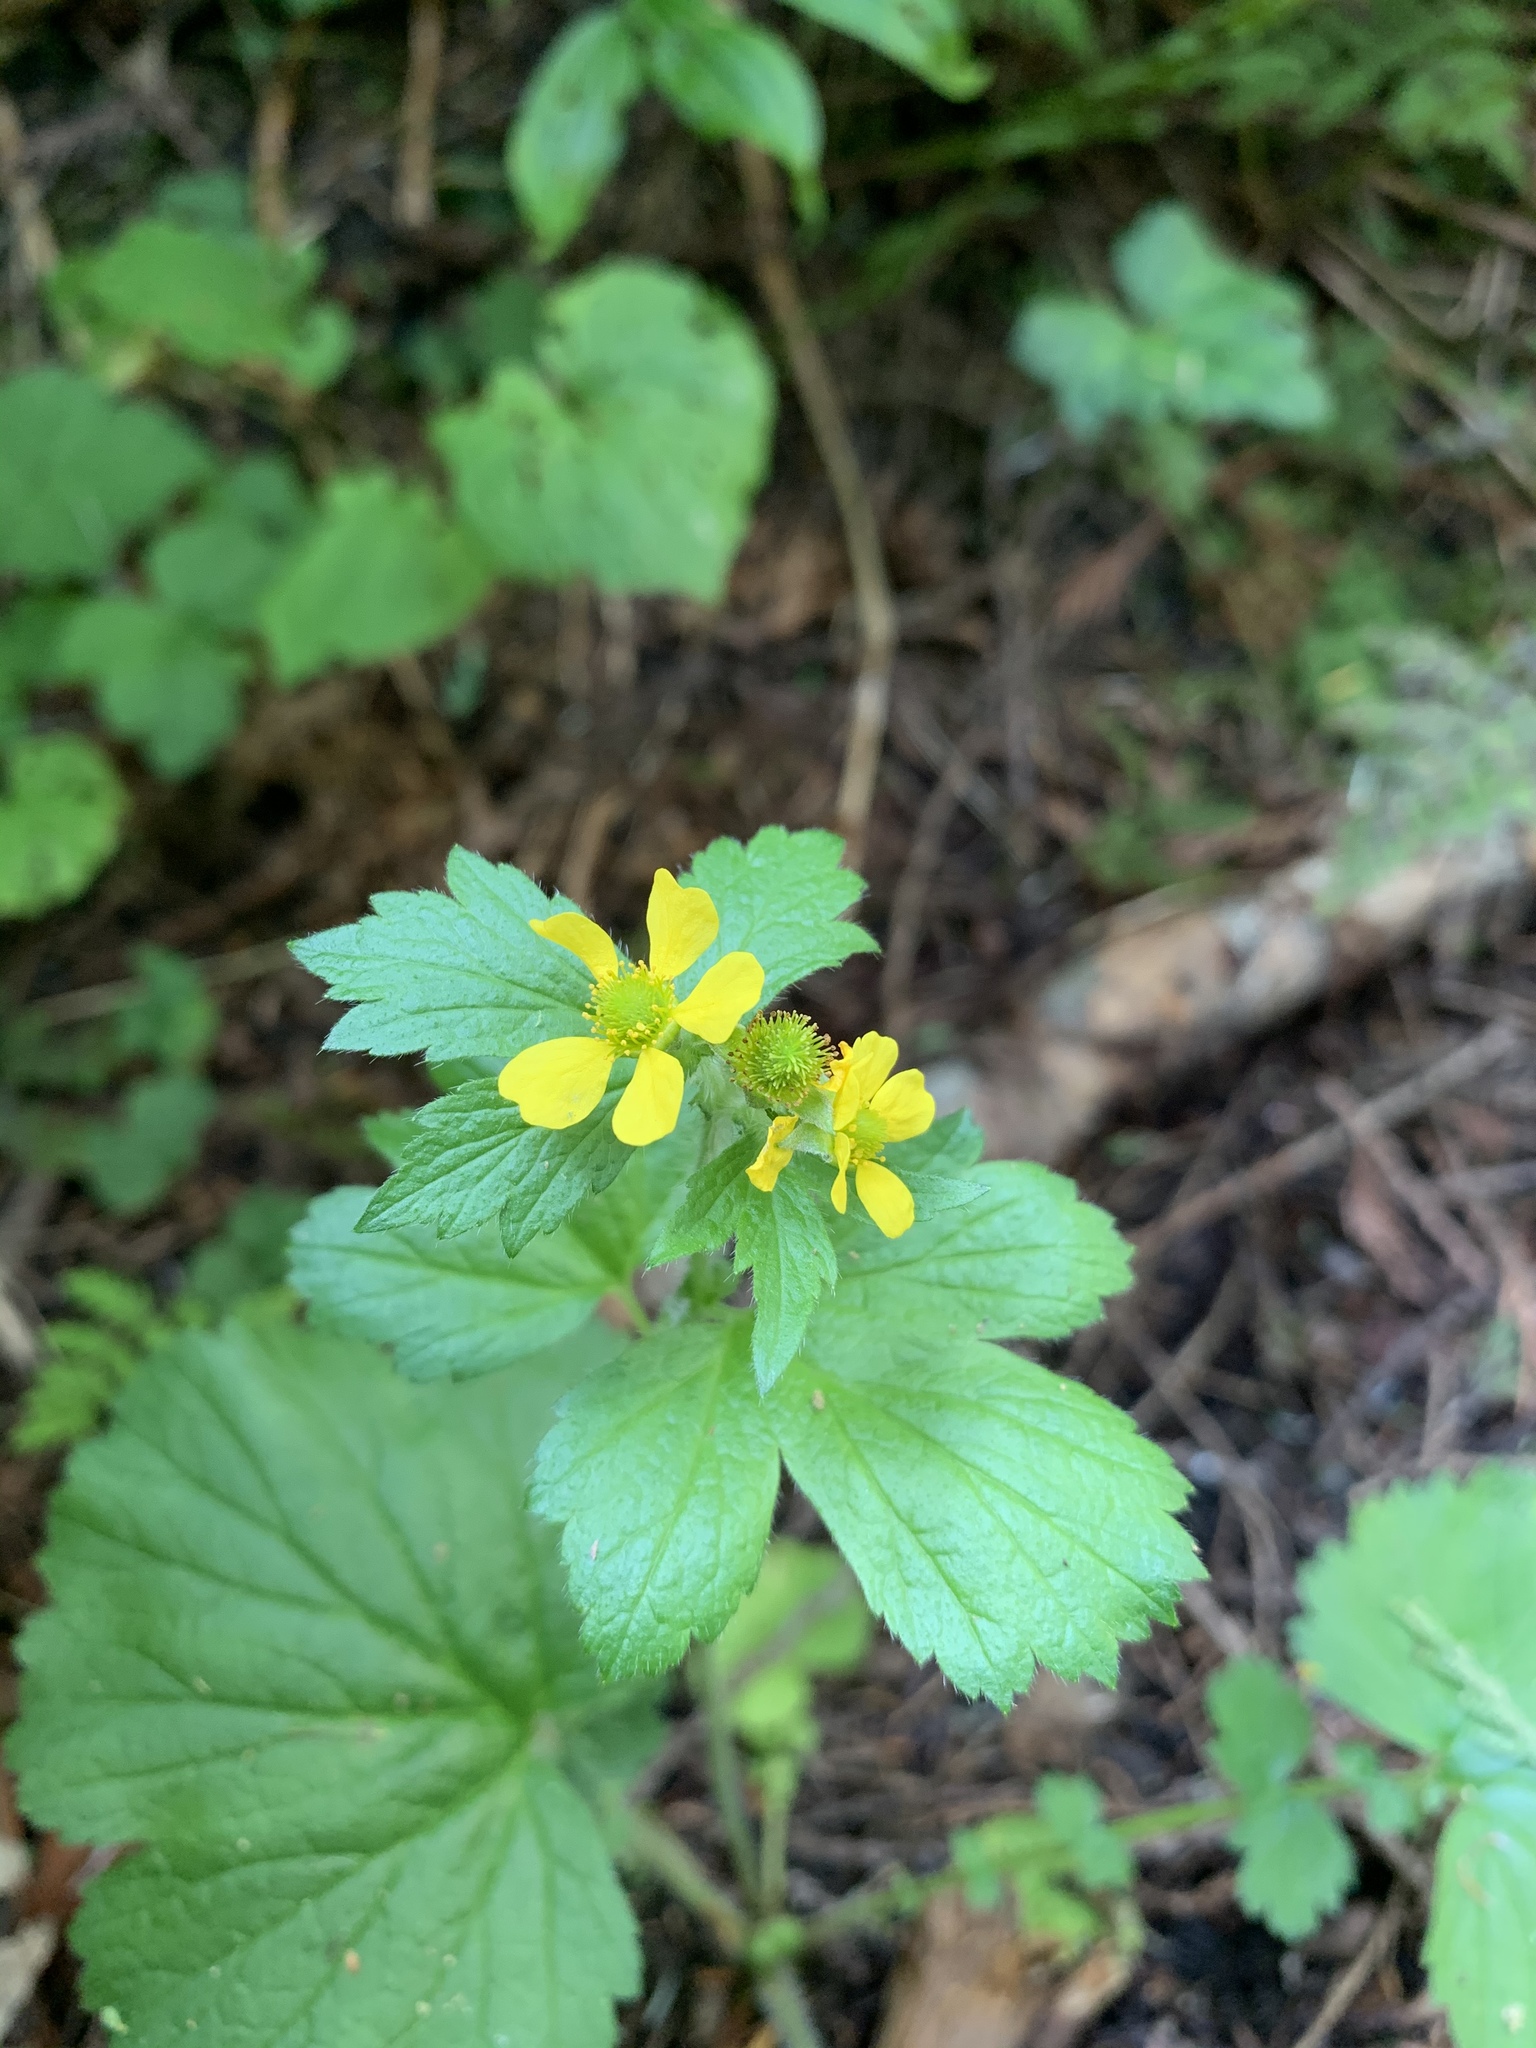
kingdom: Plantae
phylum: Tracheophyta
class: Magnoliopsida
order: Rosales
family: Rosaceae
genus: Geum
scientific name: Geum macrophyllum
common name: Large-leaved avens
